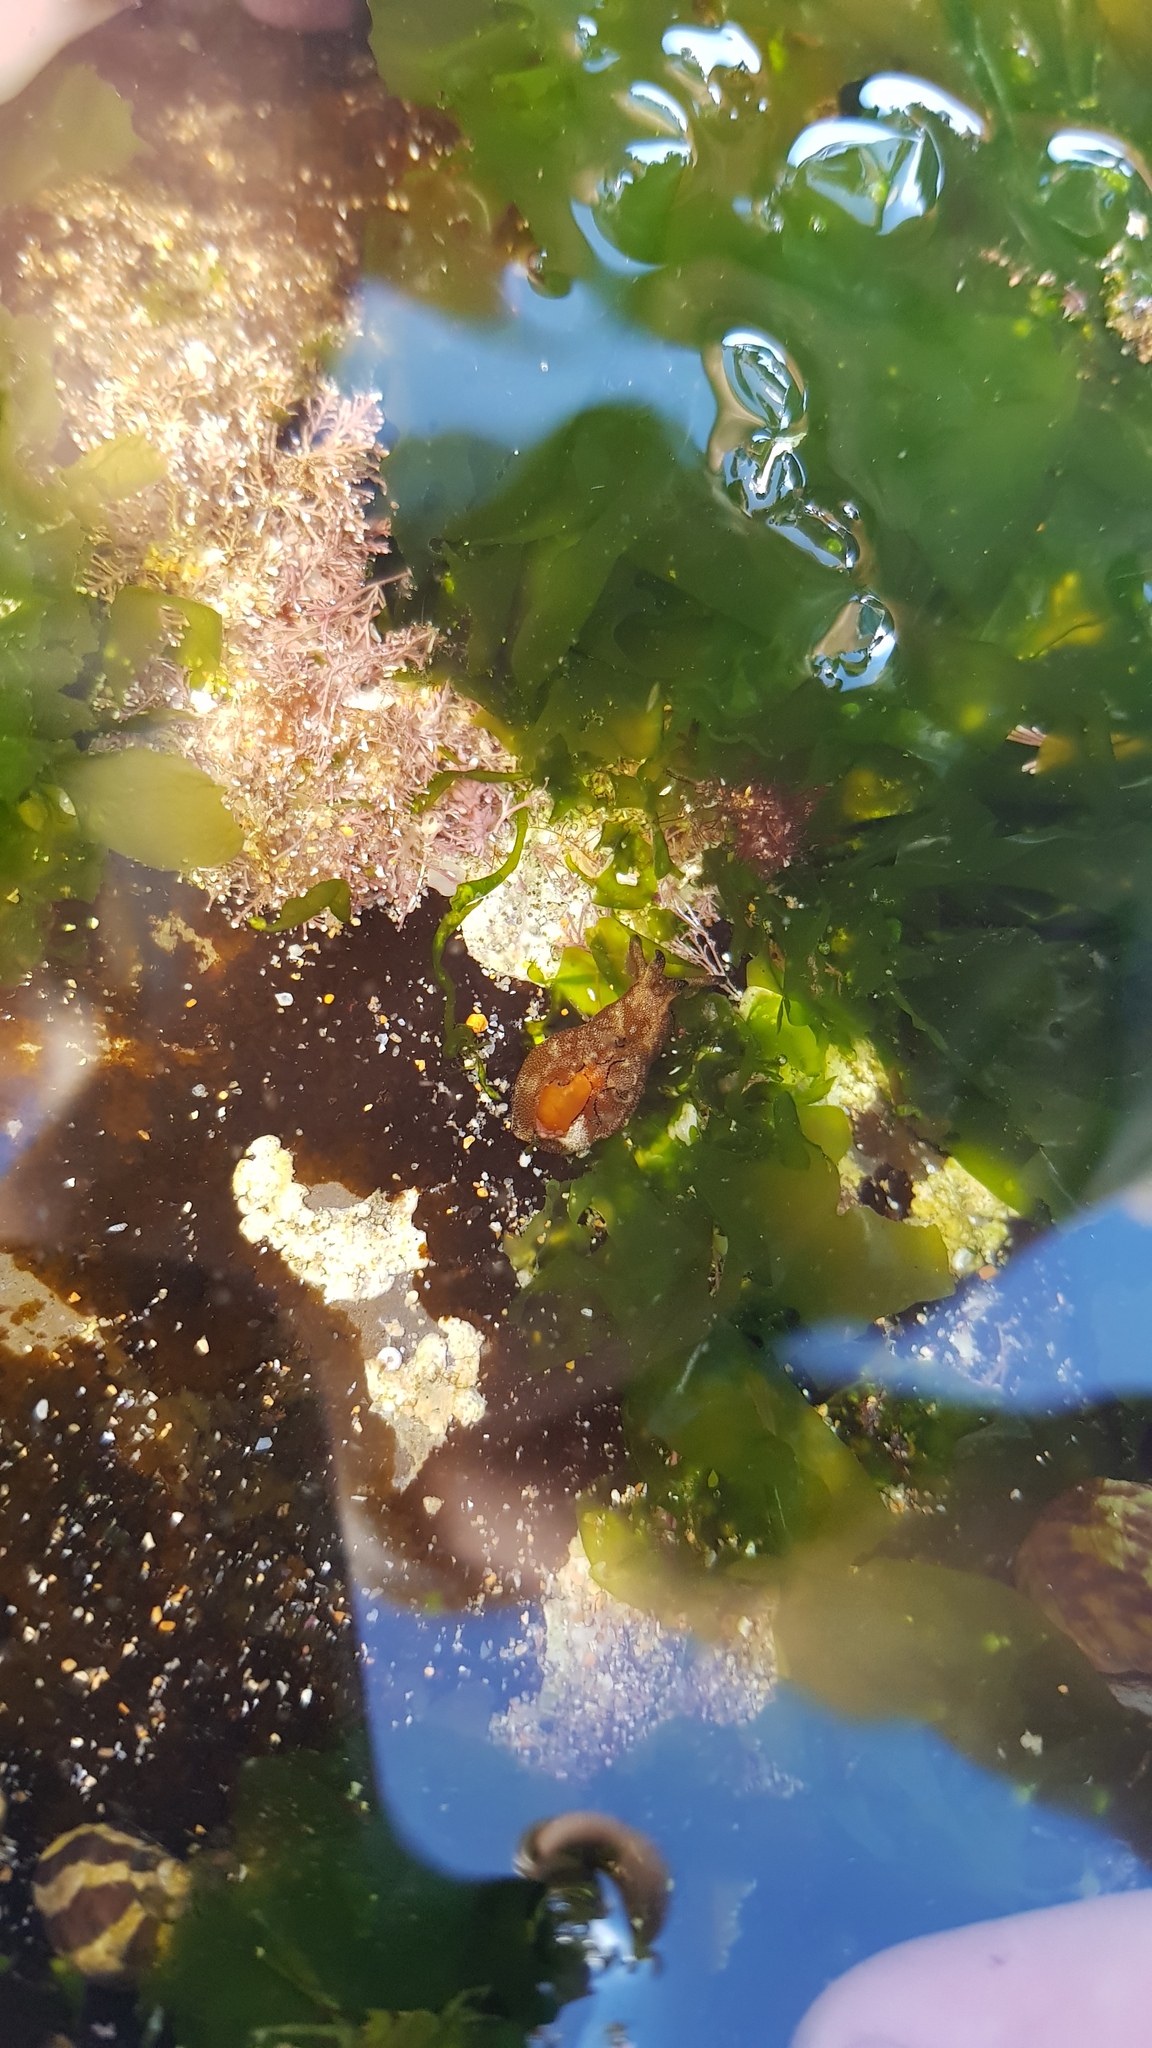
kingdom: Animalia
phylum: Mollusca
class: Gastropoda
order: Aplysiida
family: Aplysiidae
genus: Aplysia
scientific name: Aplysia concava
